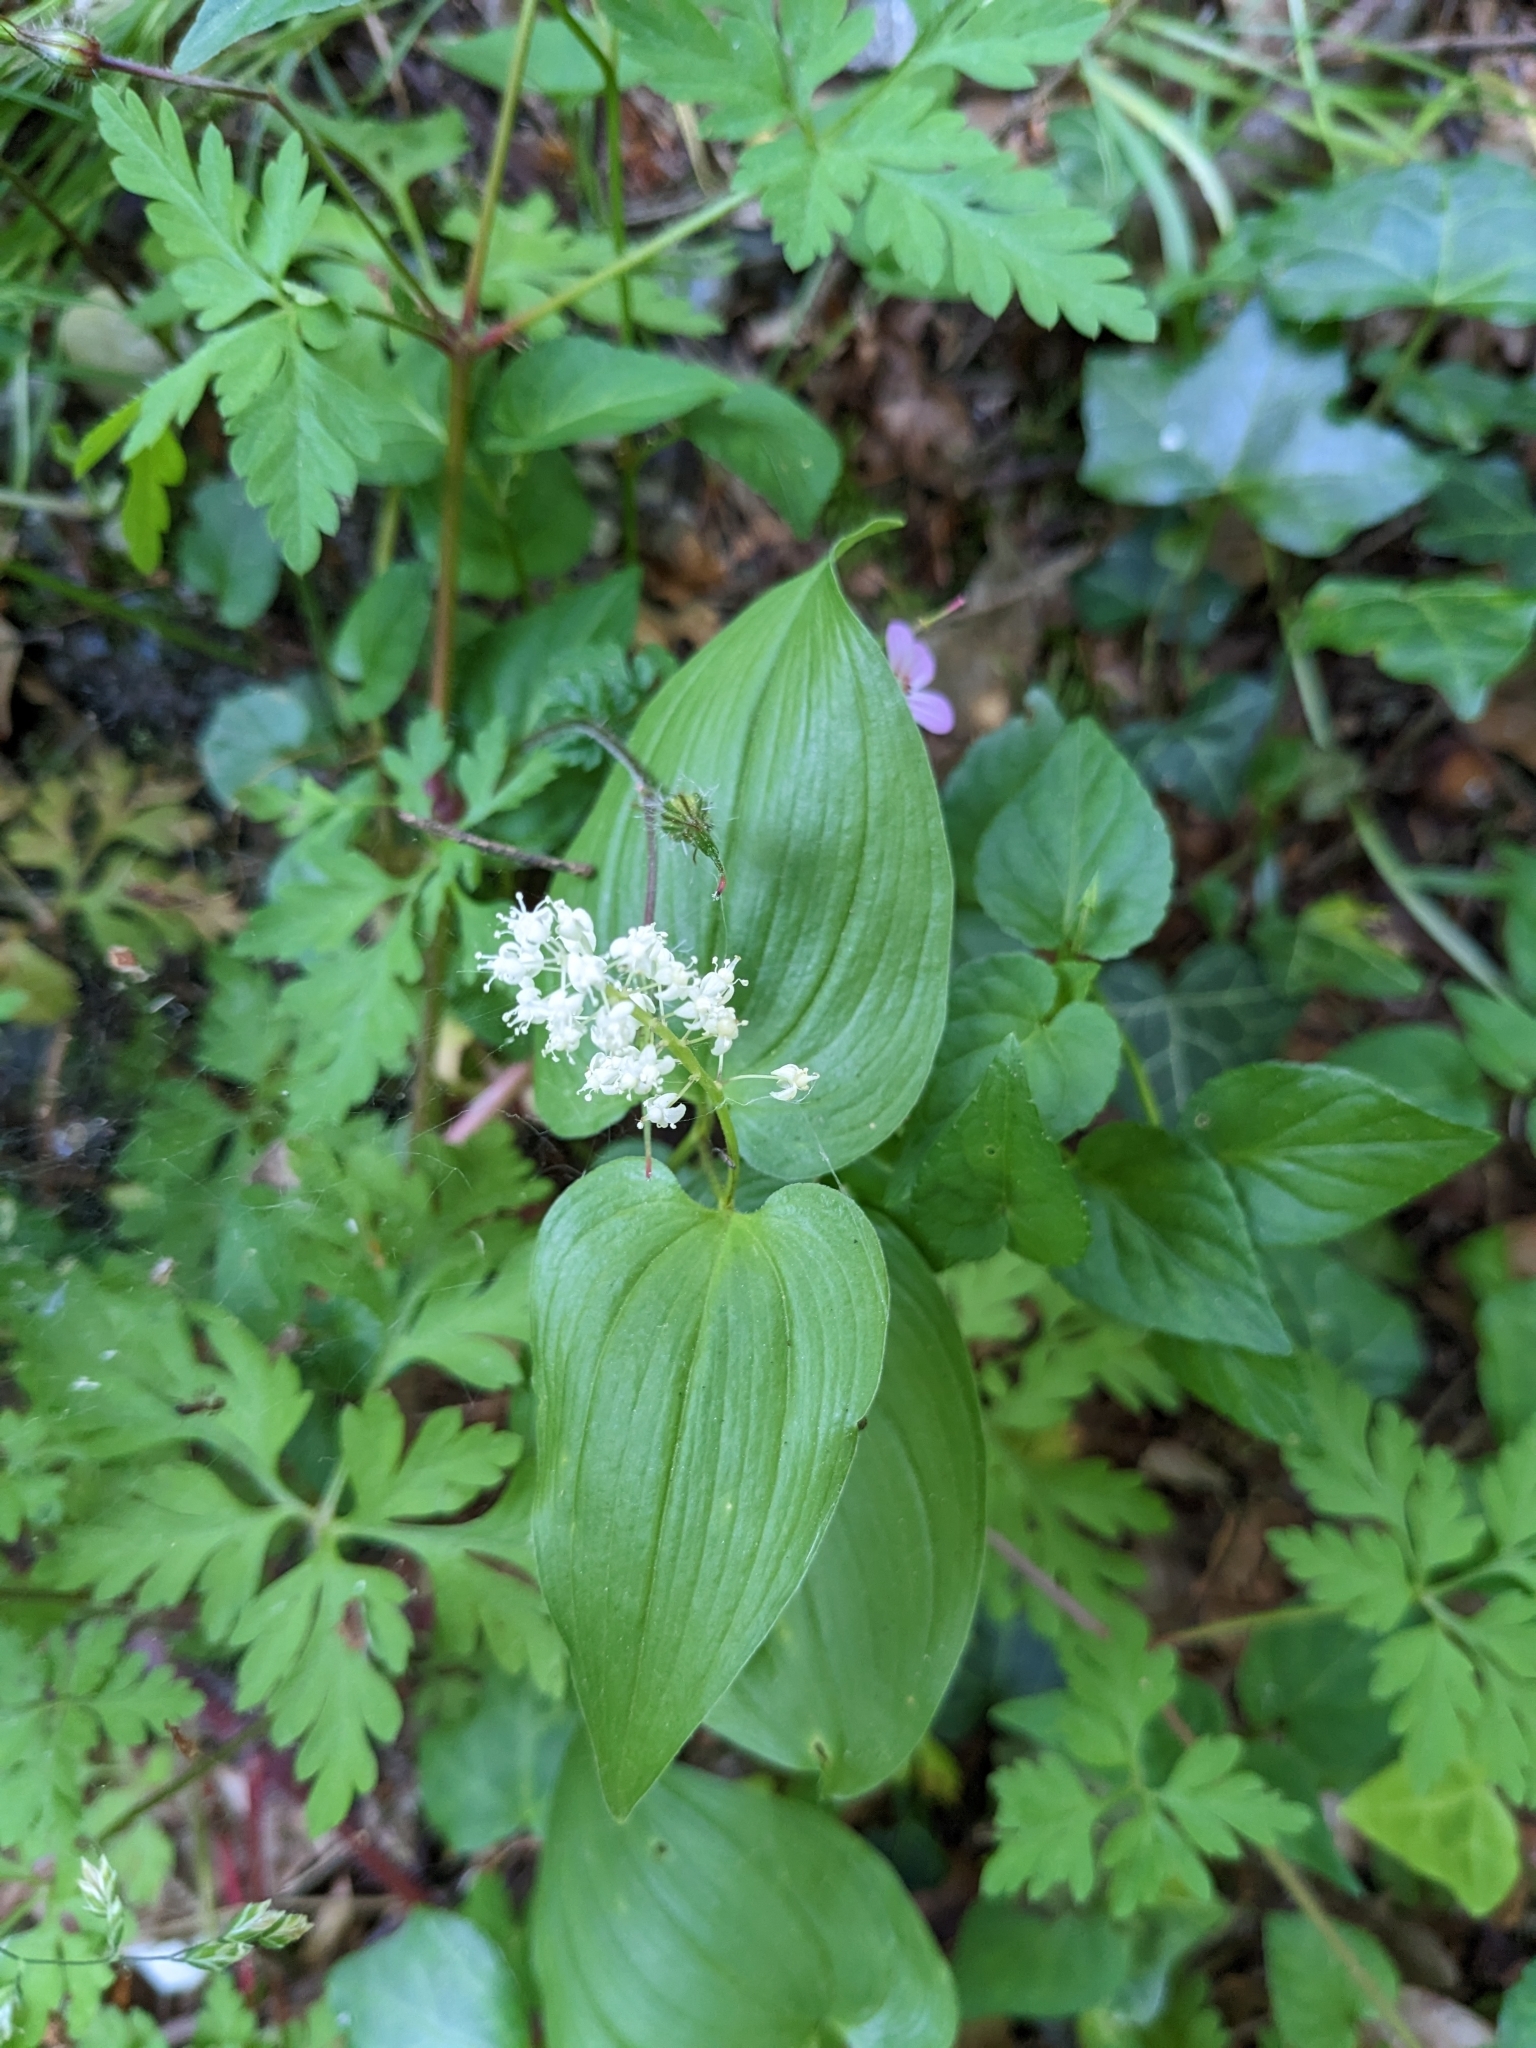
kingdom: Plantae
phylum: Tracheophyta
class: Liliopsida
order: Asparagales
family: Asparagaceae
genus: Maianthemum
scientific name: Maianthemum bifolium
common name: May lily
